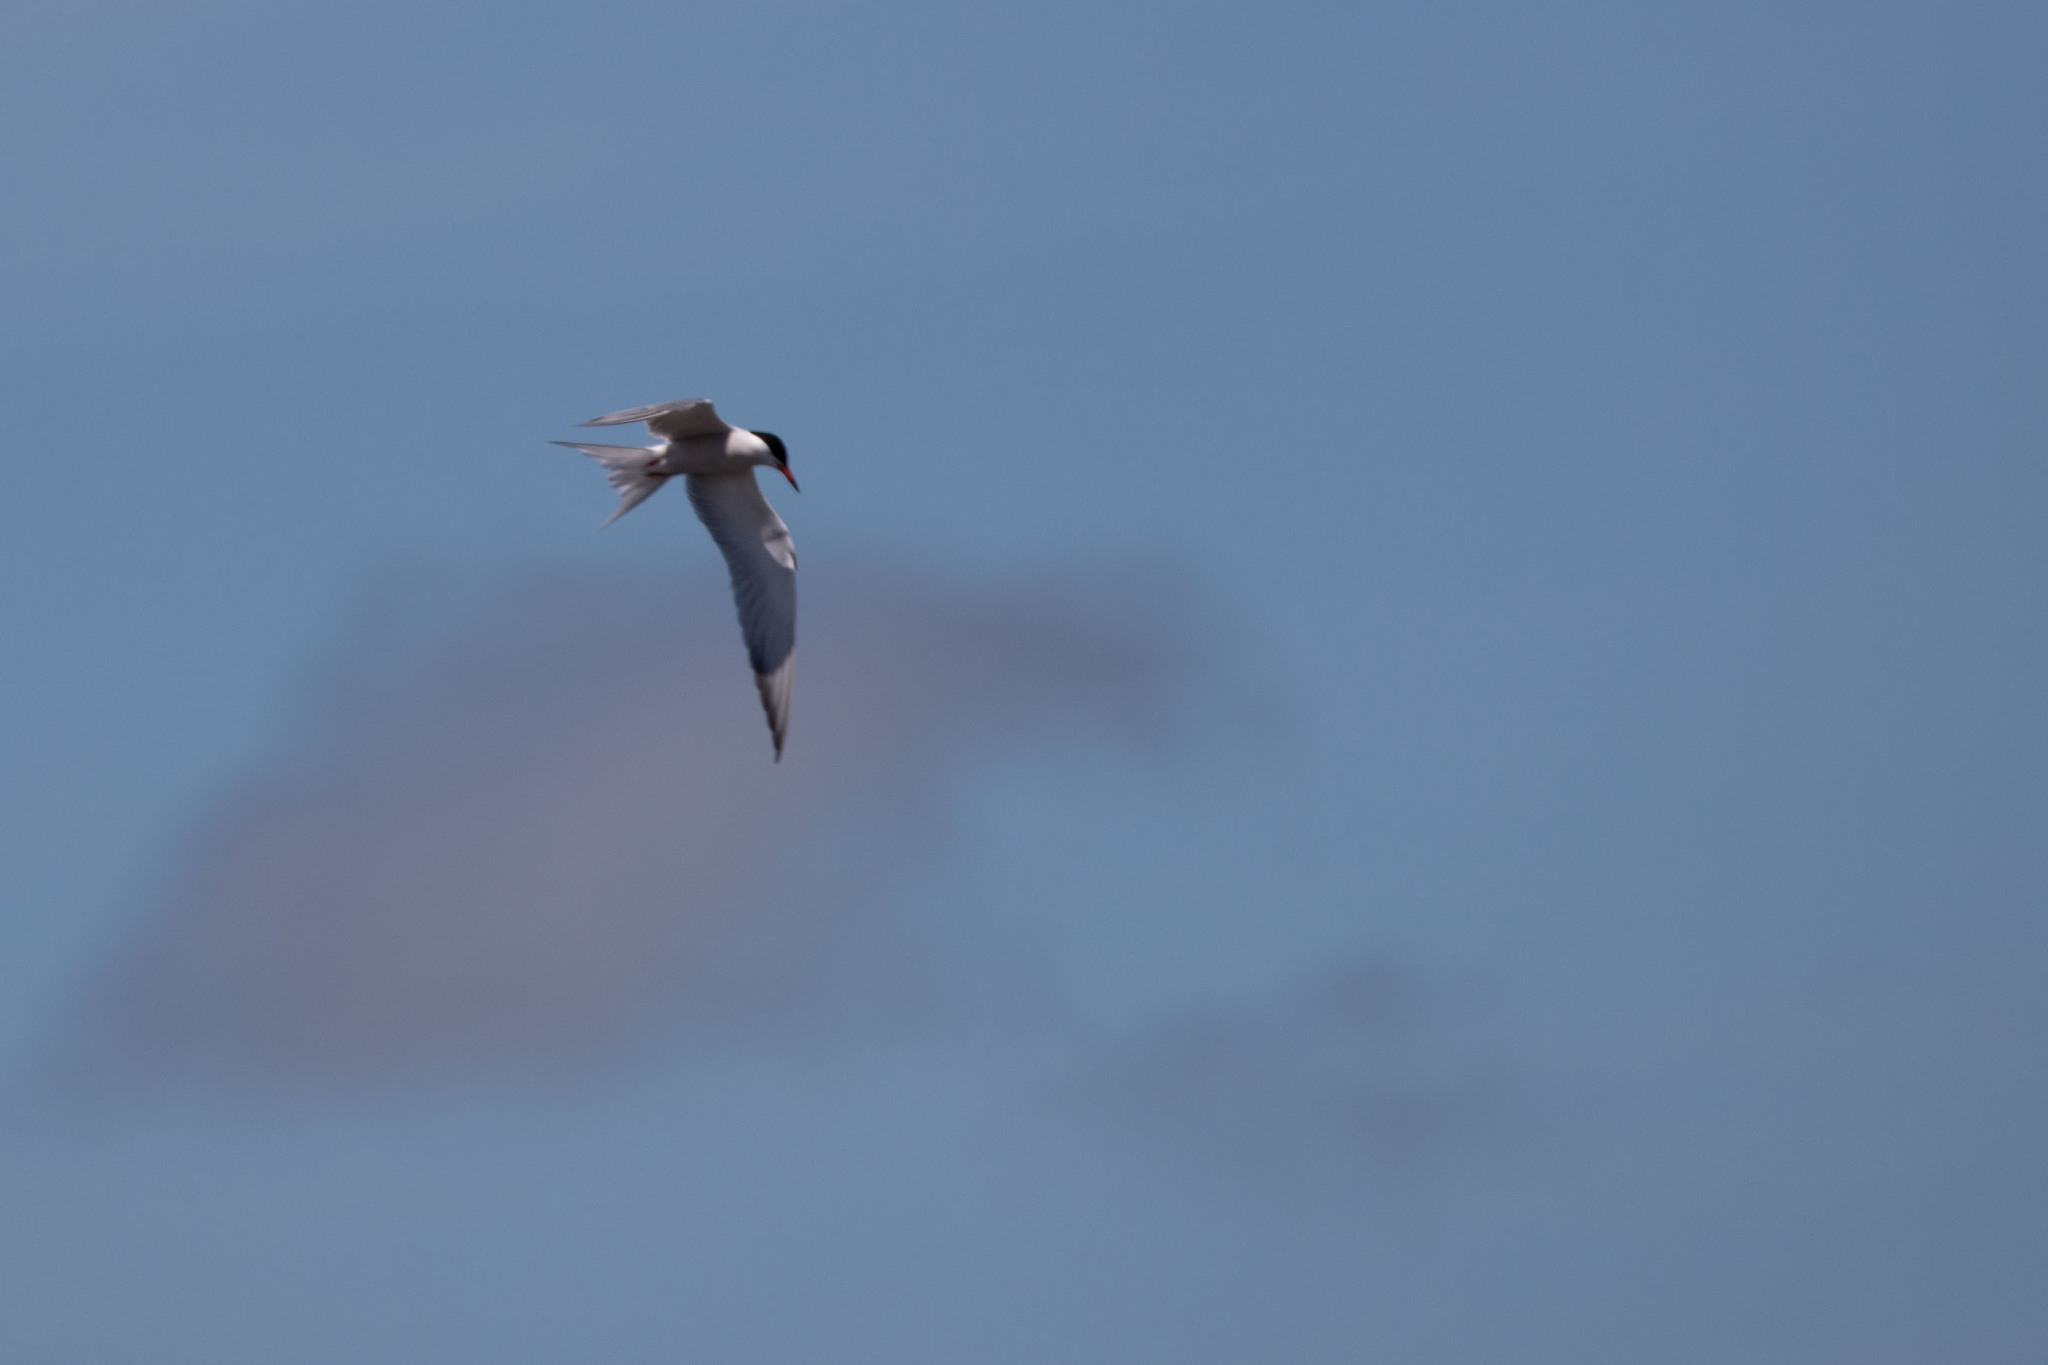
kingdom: Animalia
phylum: Chordata
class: Aves
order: Charadriiformes
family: Laridae
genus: Sterna
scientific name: Sterna hirundo
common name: Common tern
